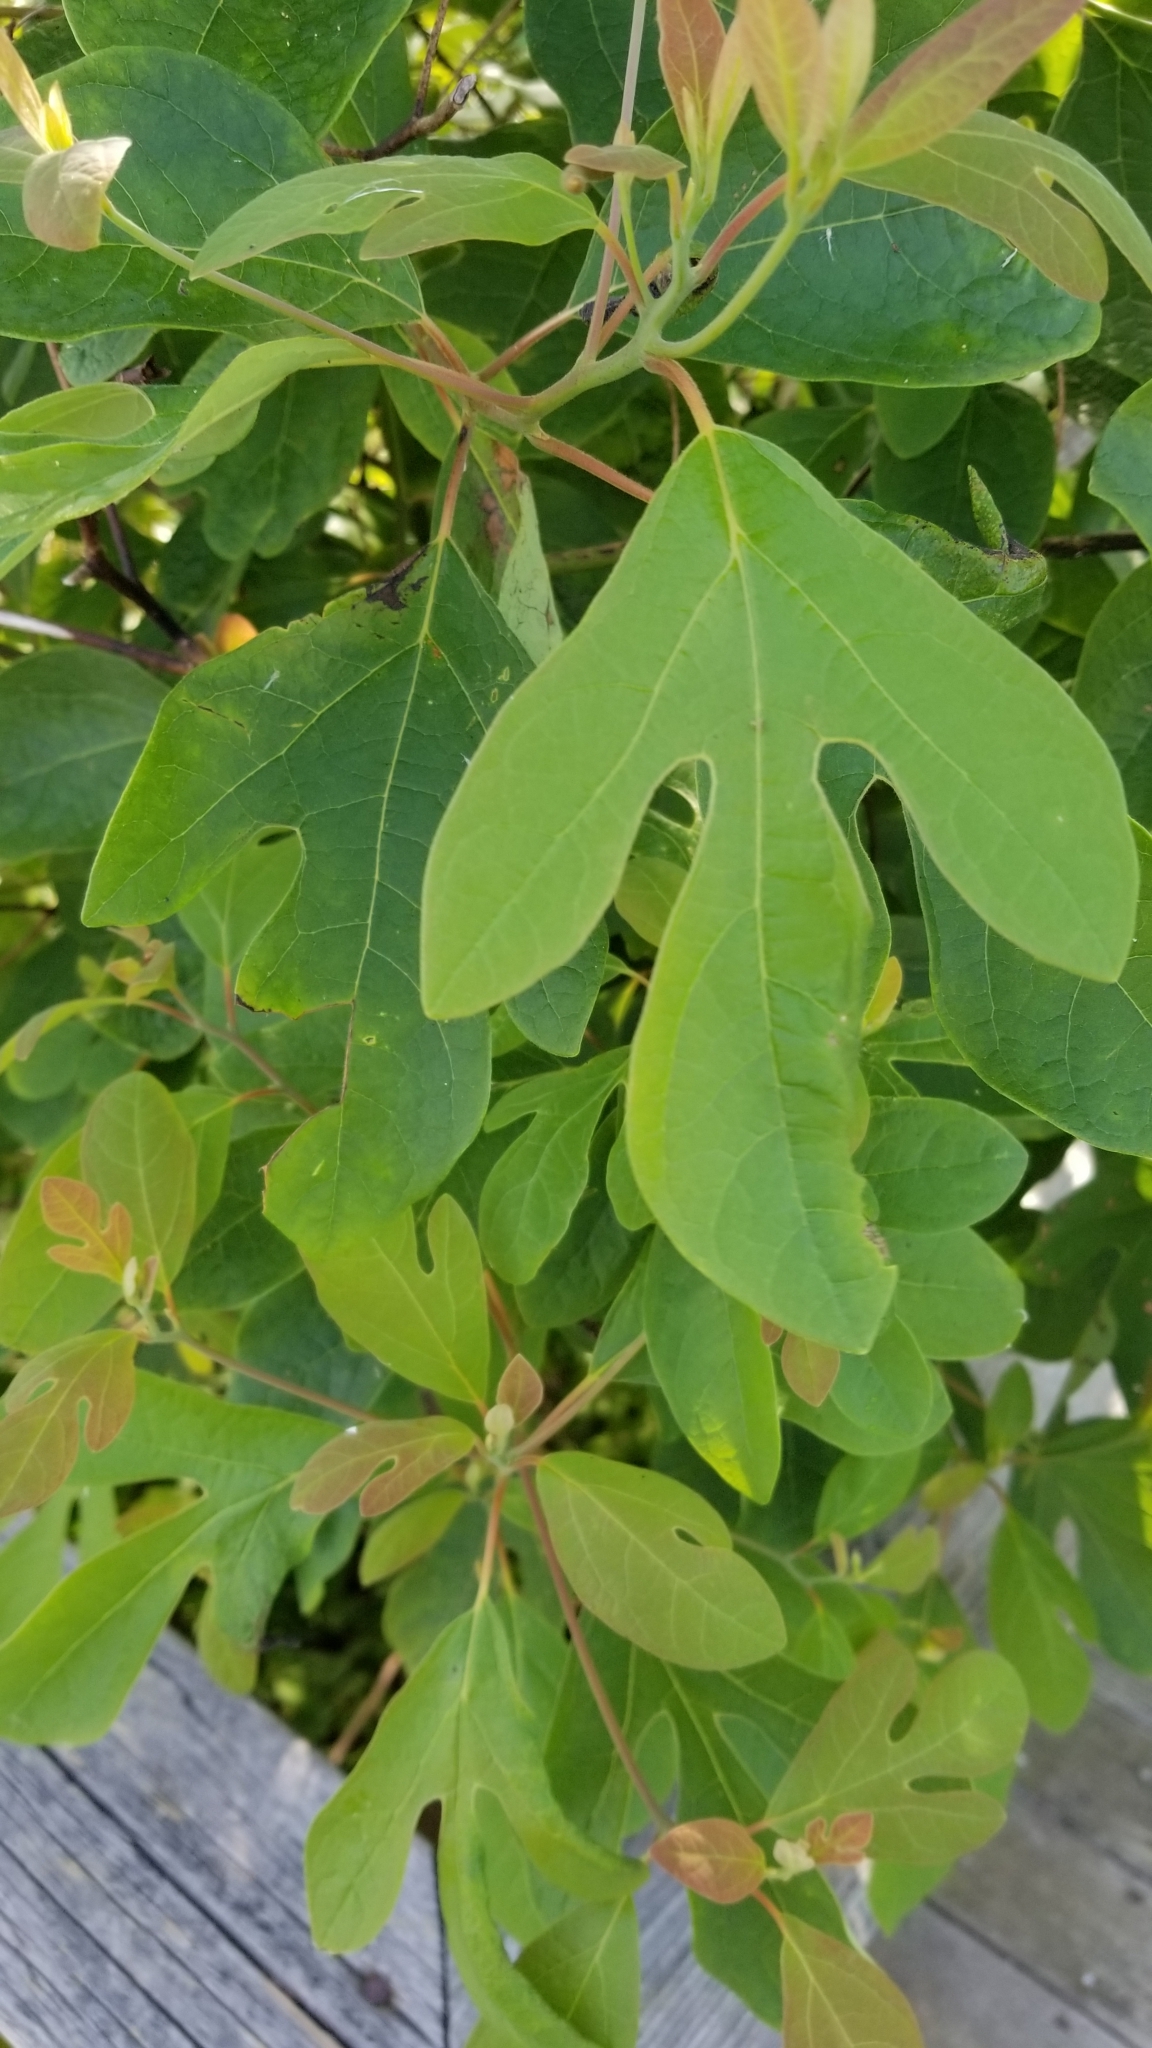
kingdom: Plantae
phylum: Tracheophyta
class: Magnoliopsida
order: Laurales
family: Lauraceae
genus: Sassafras
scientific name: Sassafras albidum
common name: Sassafras
